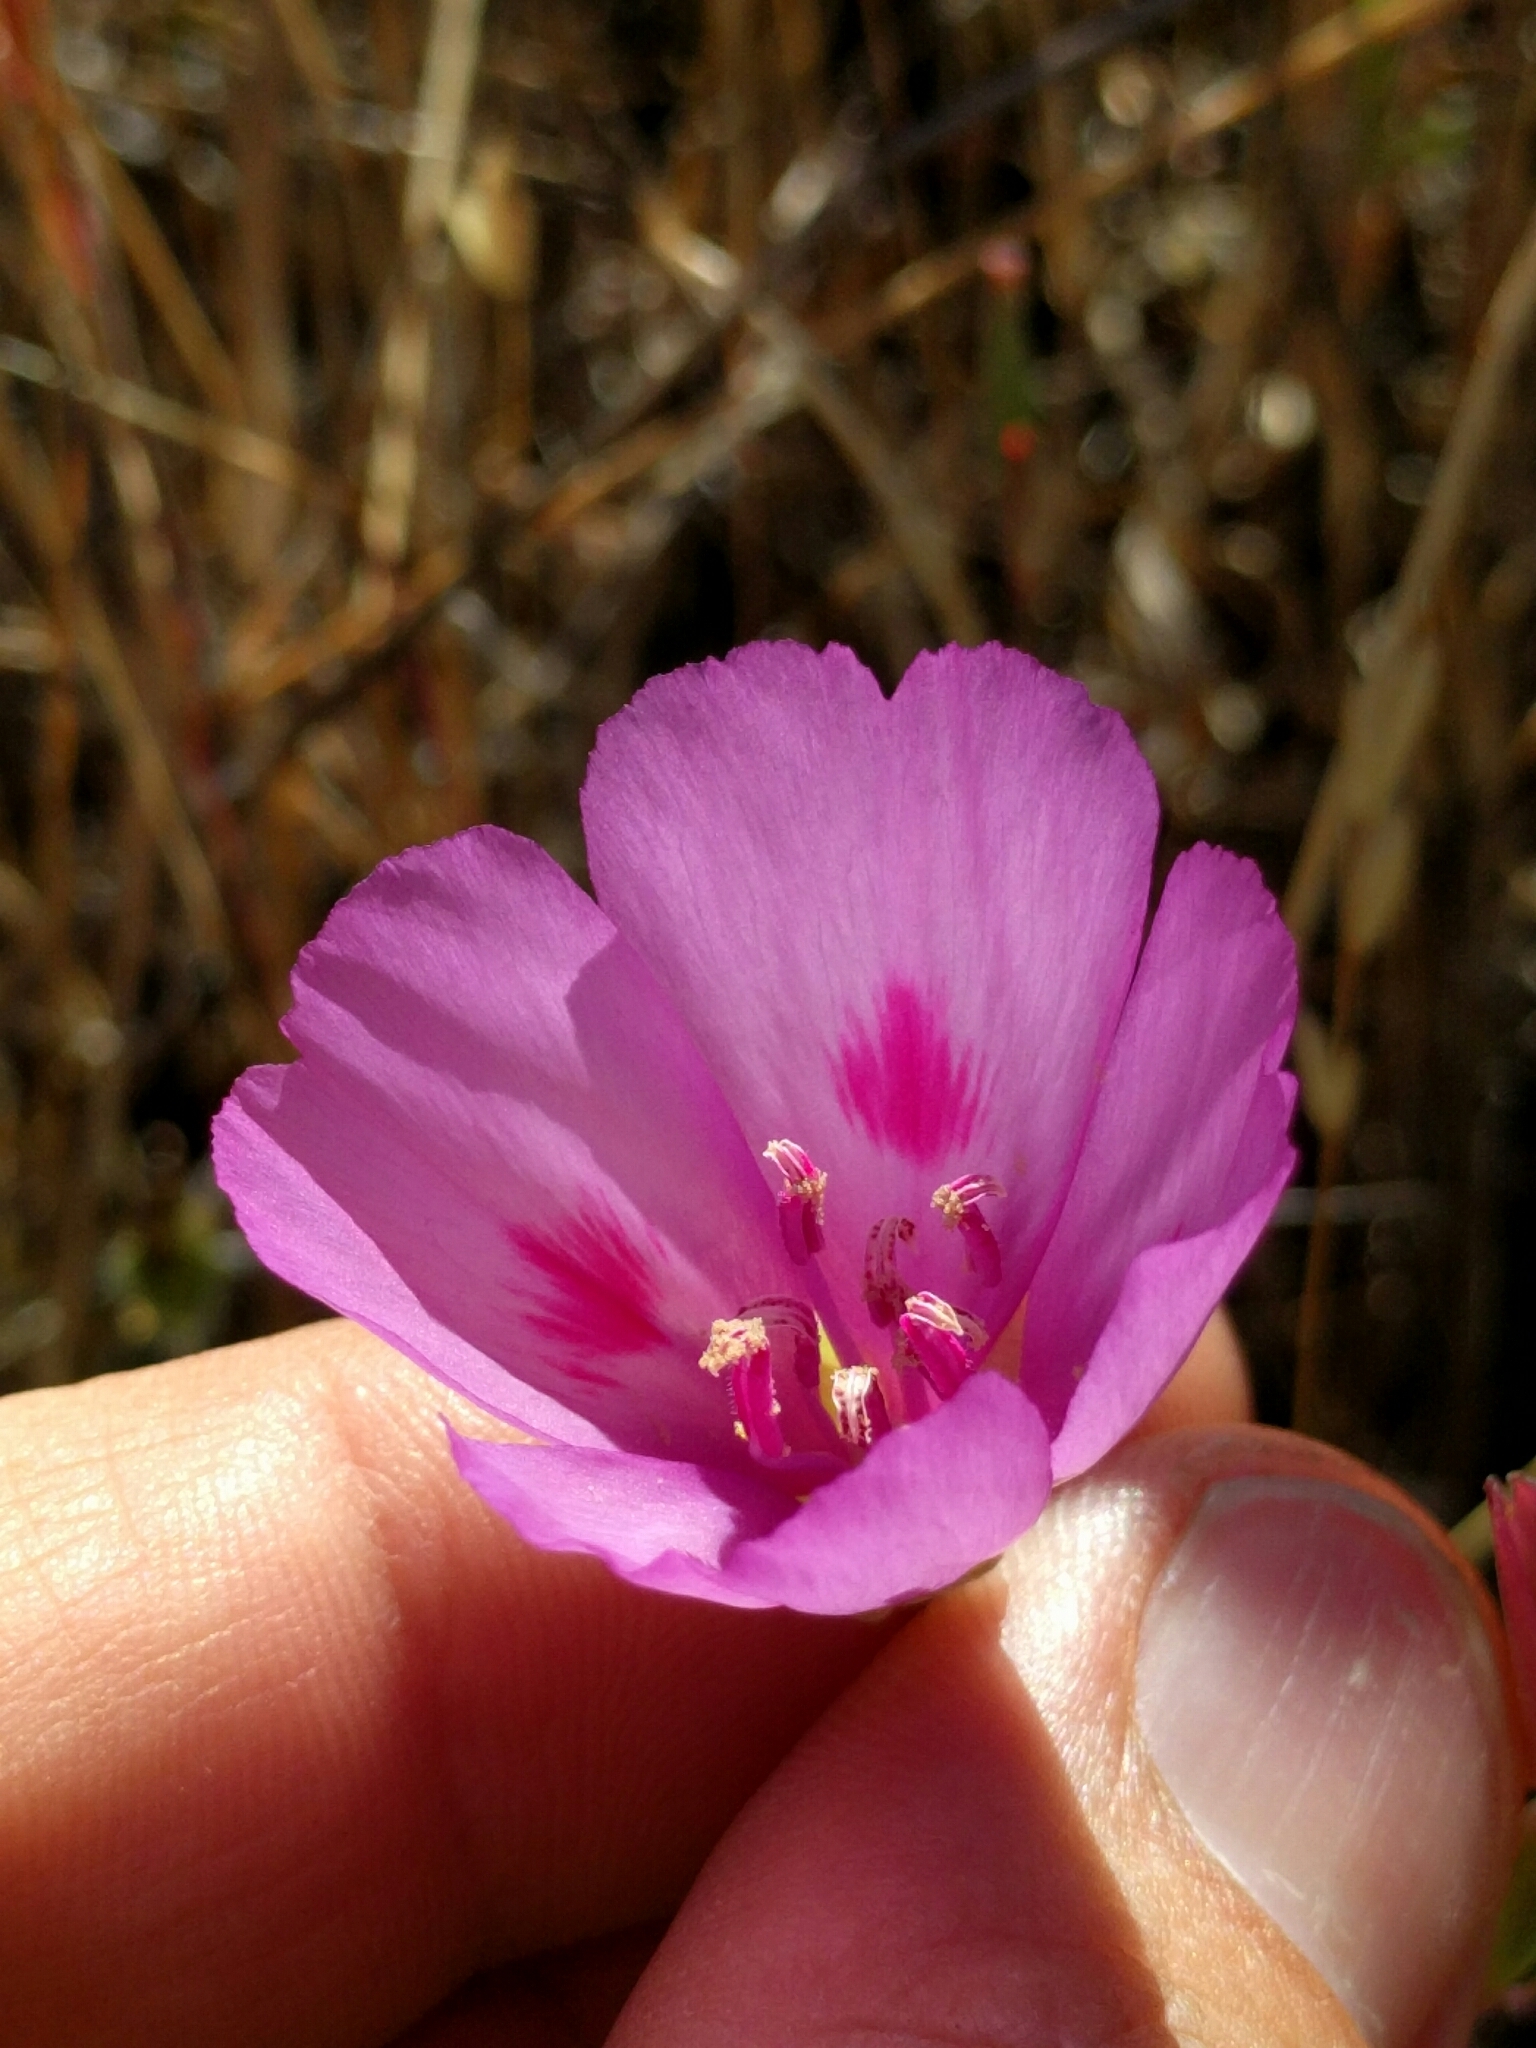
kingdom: Plantae
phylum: Tracheophyta
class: Magnoliopsida
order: Myrtales
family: Onagraceae
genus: Clarkia
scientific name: Clarkia amoena
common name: Godetia
